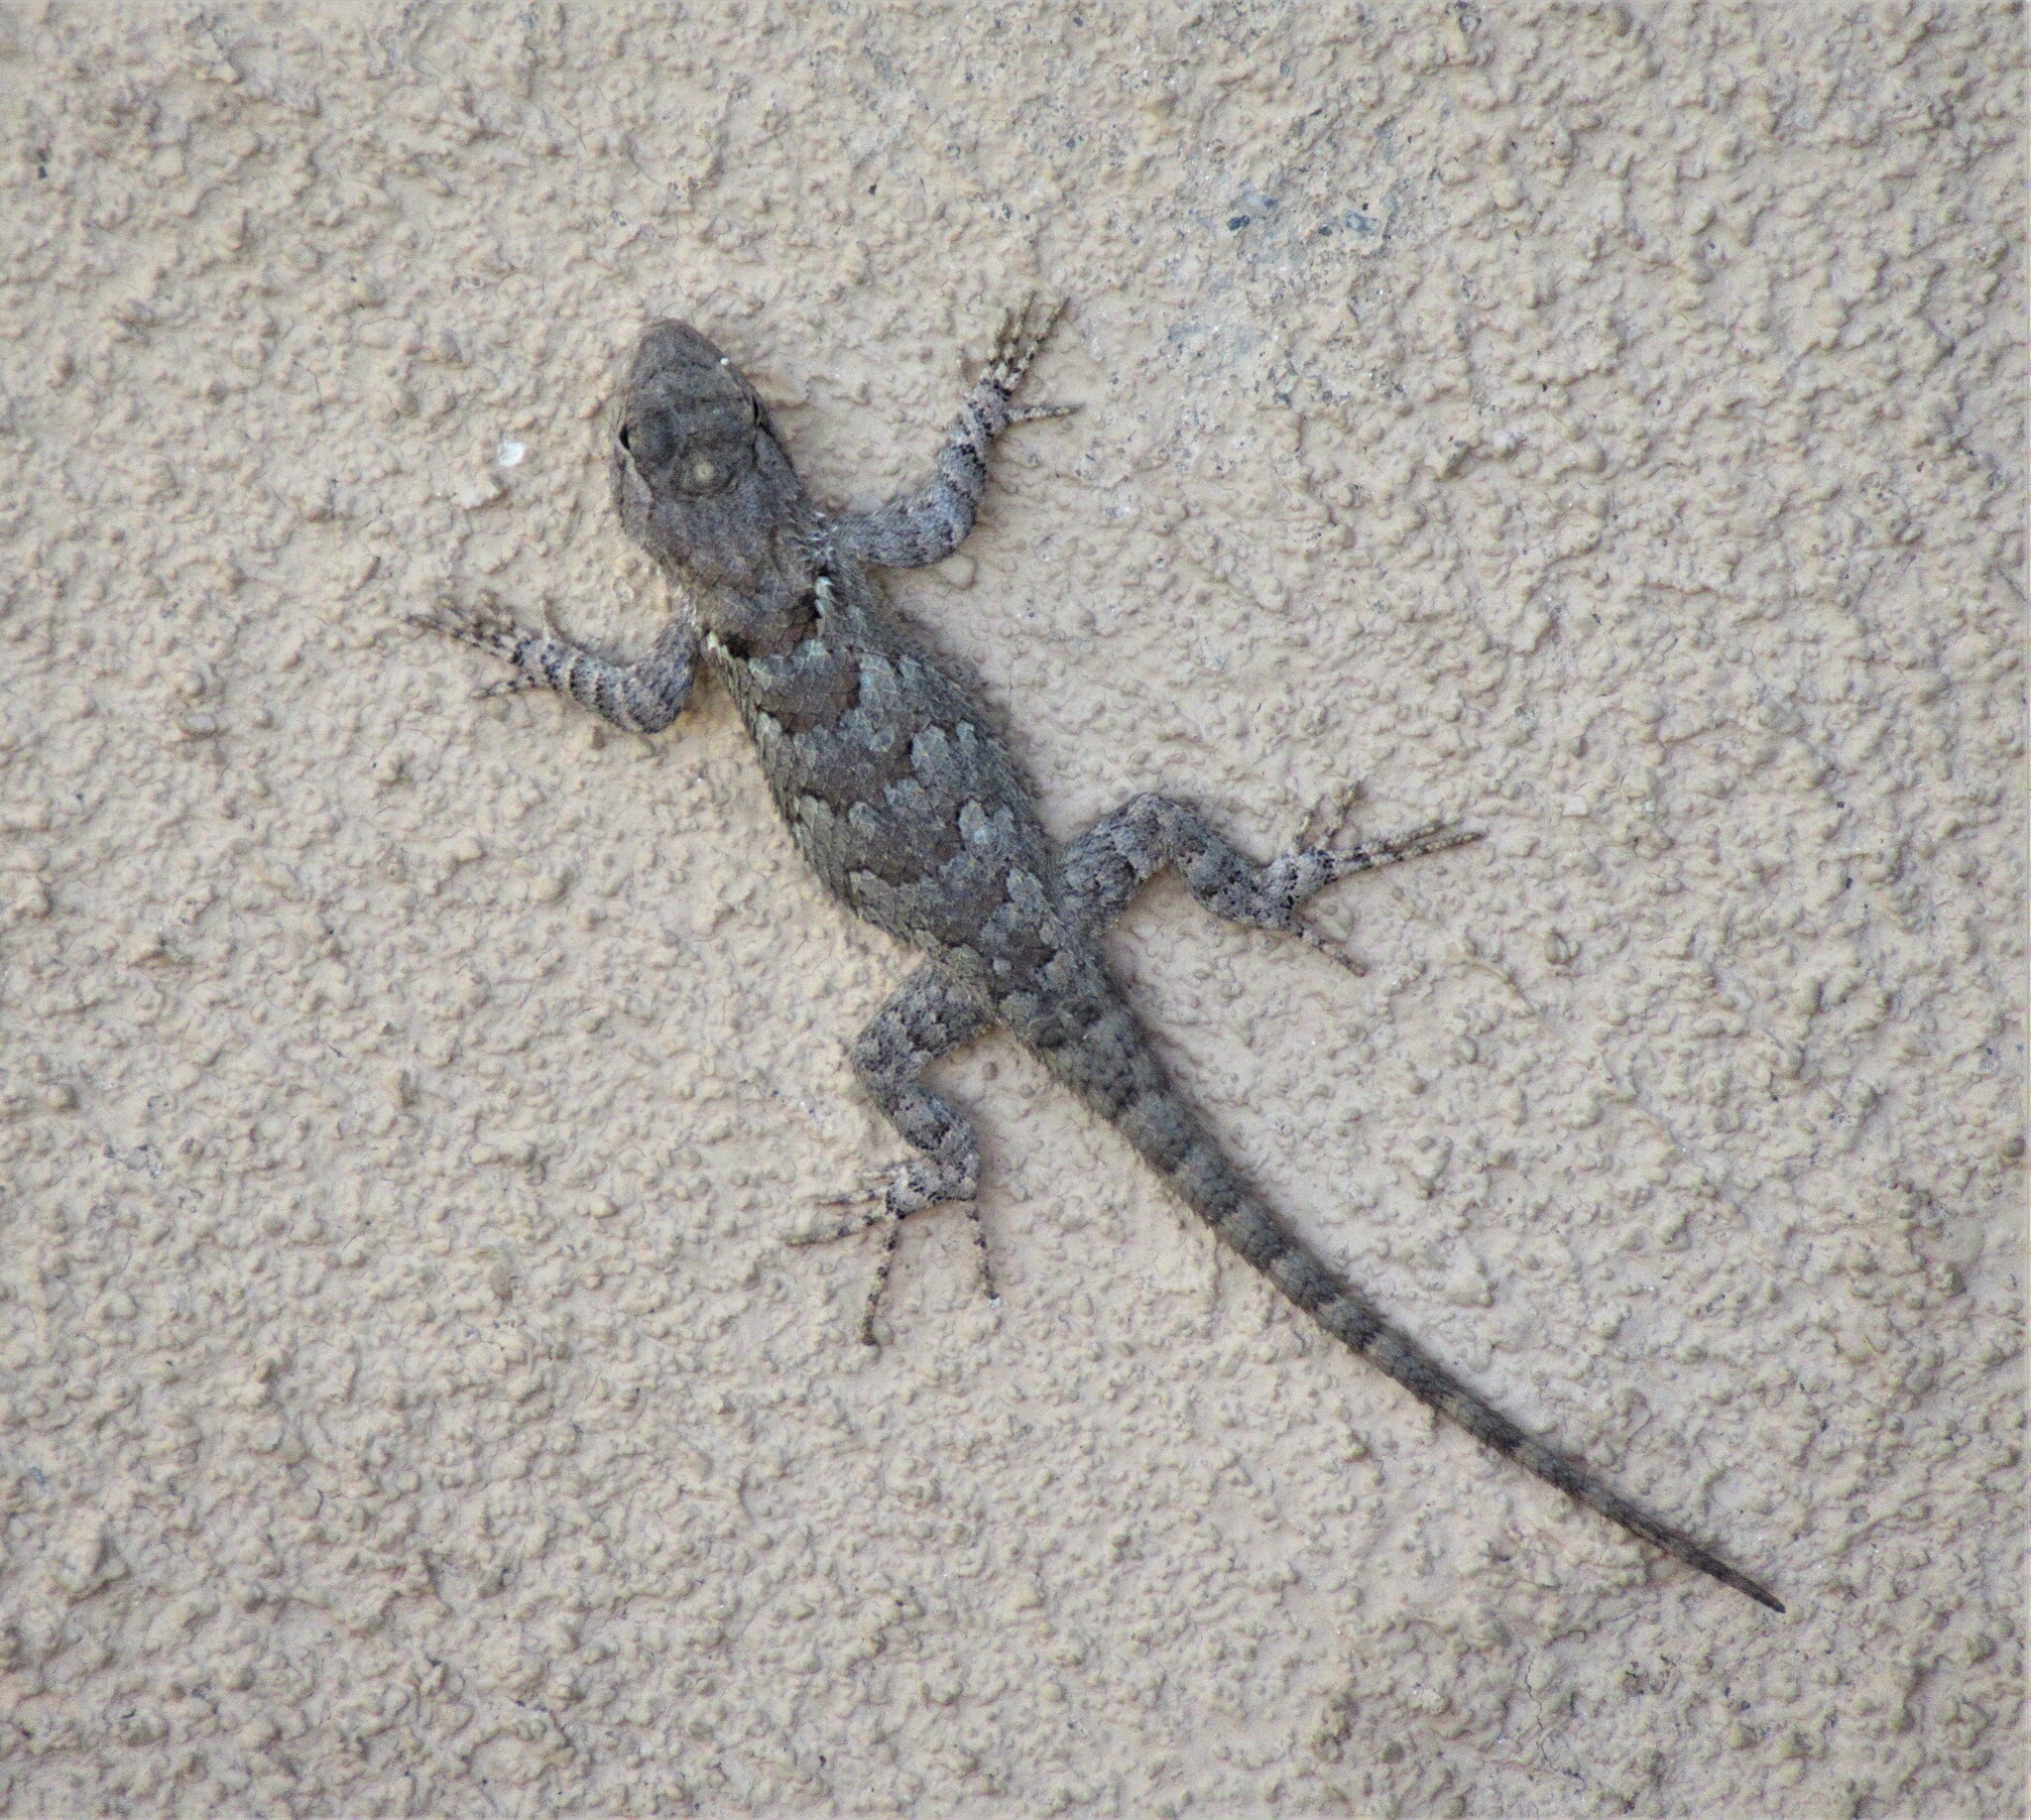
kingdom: Animalia
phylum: Chordata
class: Squamata
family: Phrynosomatidae
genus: Sceloporus
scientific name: Sceloporus clarkii
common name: Clark's spiny lizard
